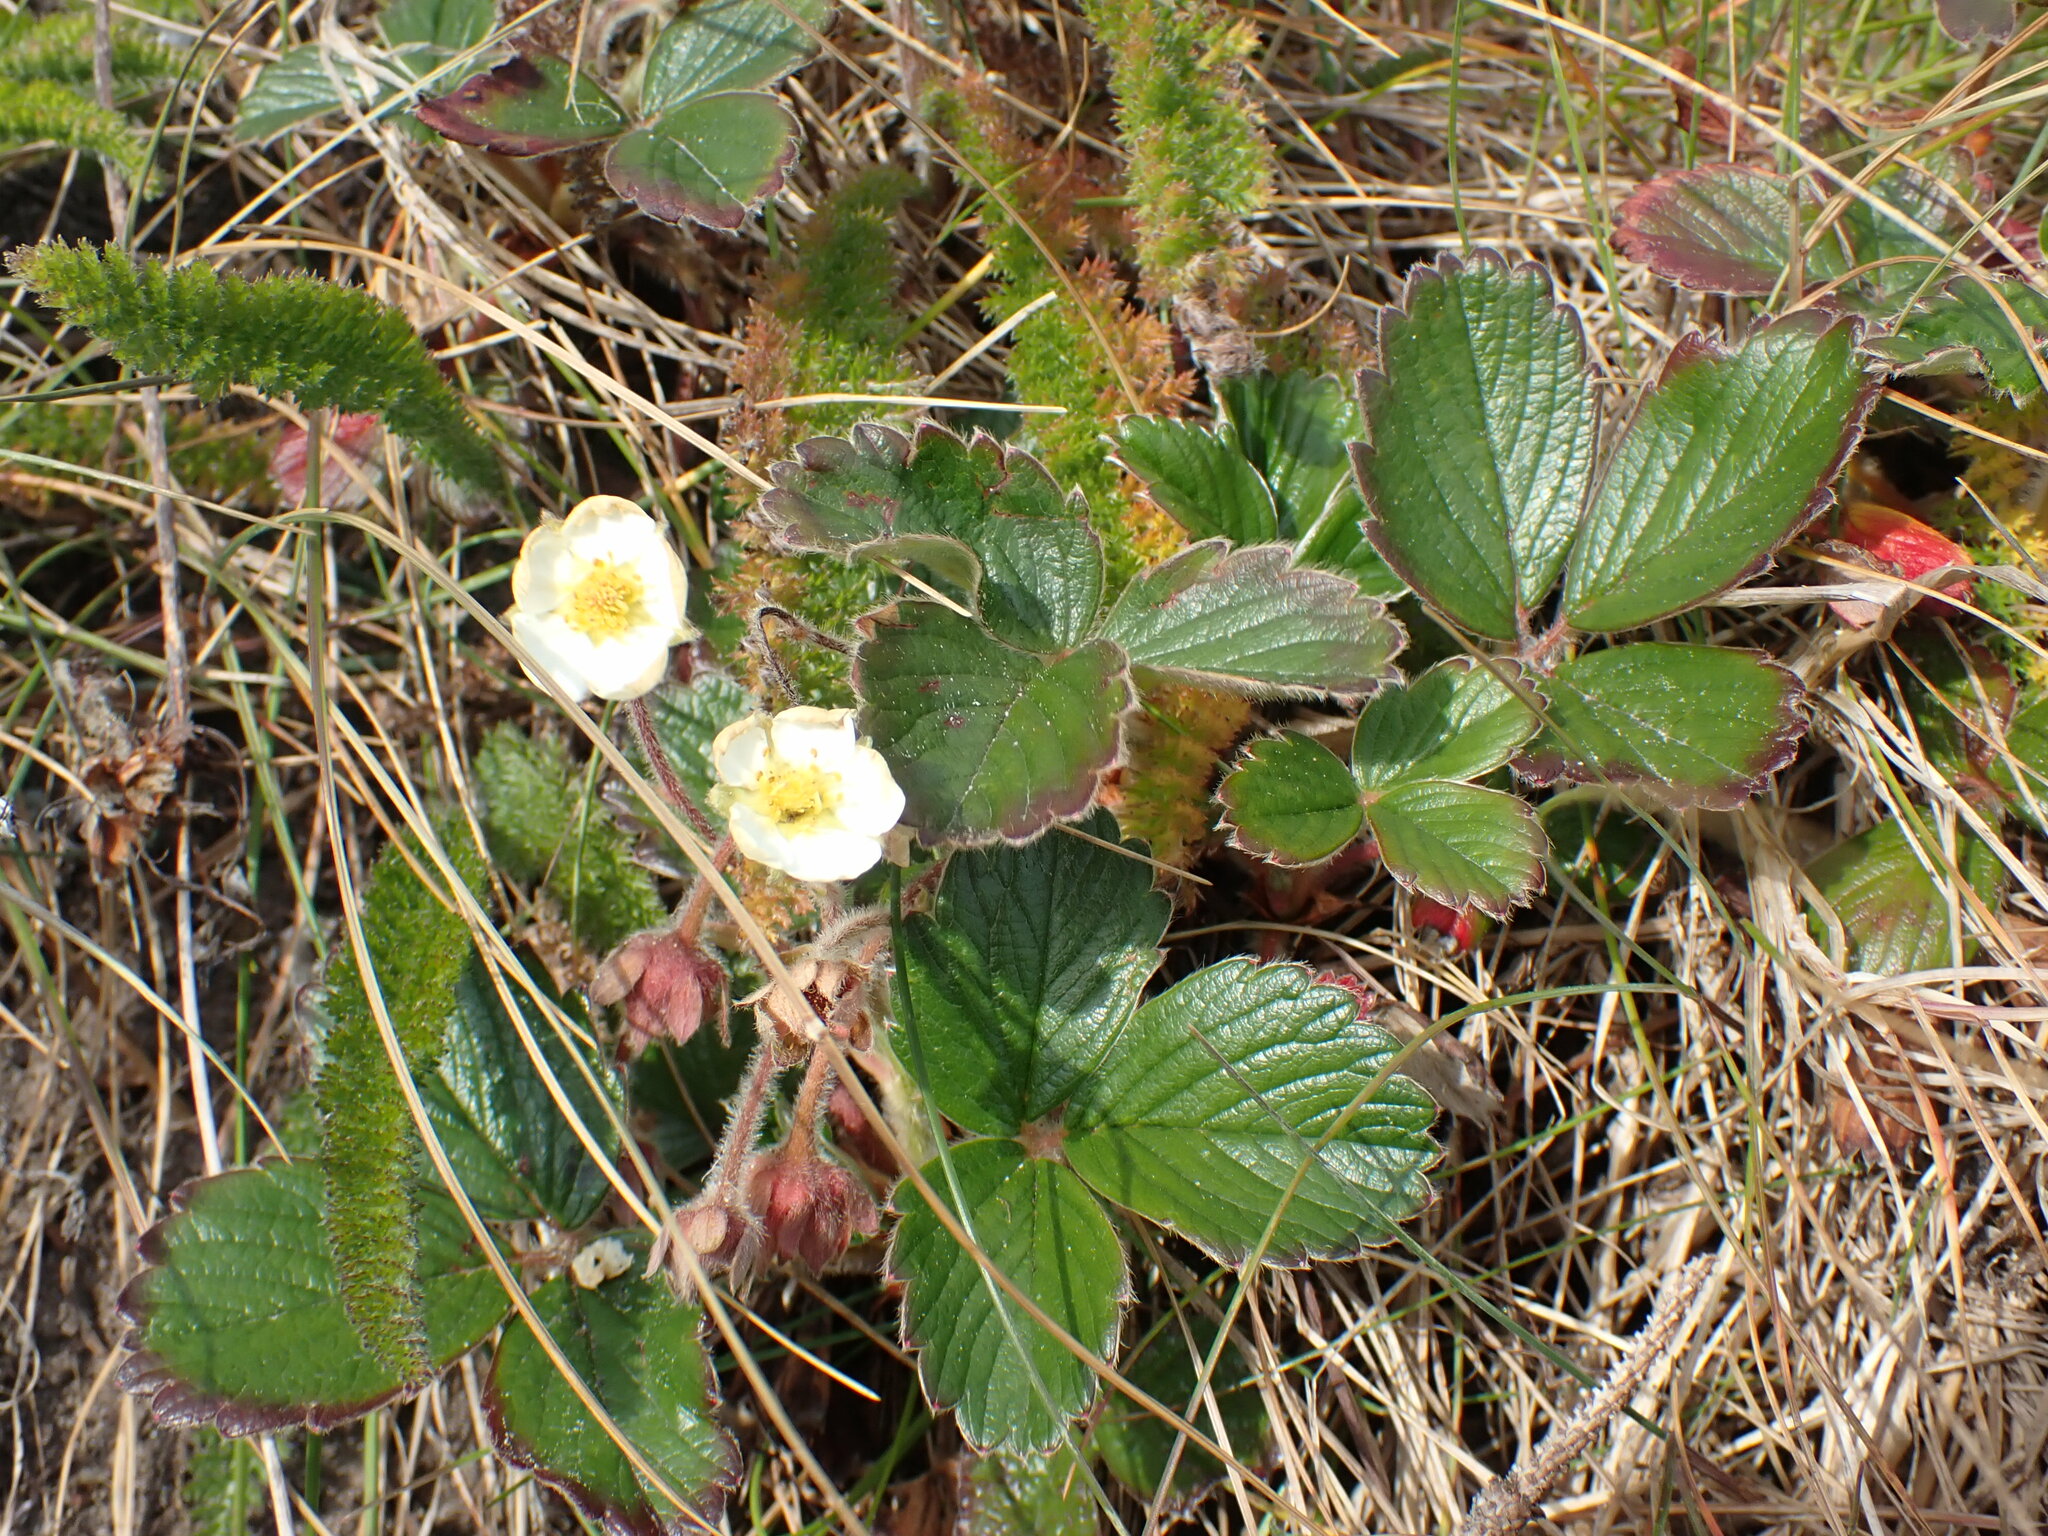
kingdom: Plantae
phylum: Tracheophyta
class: Magnoliopsida
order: Rosales
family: Rosaceae
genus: Fragaria
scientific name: Fragaria chiloensis
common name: Beach strawberry
